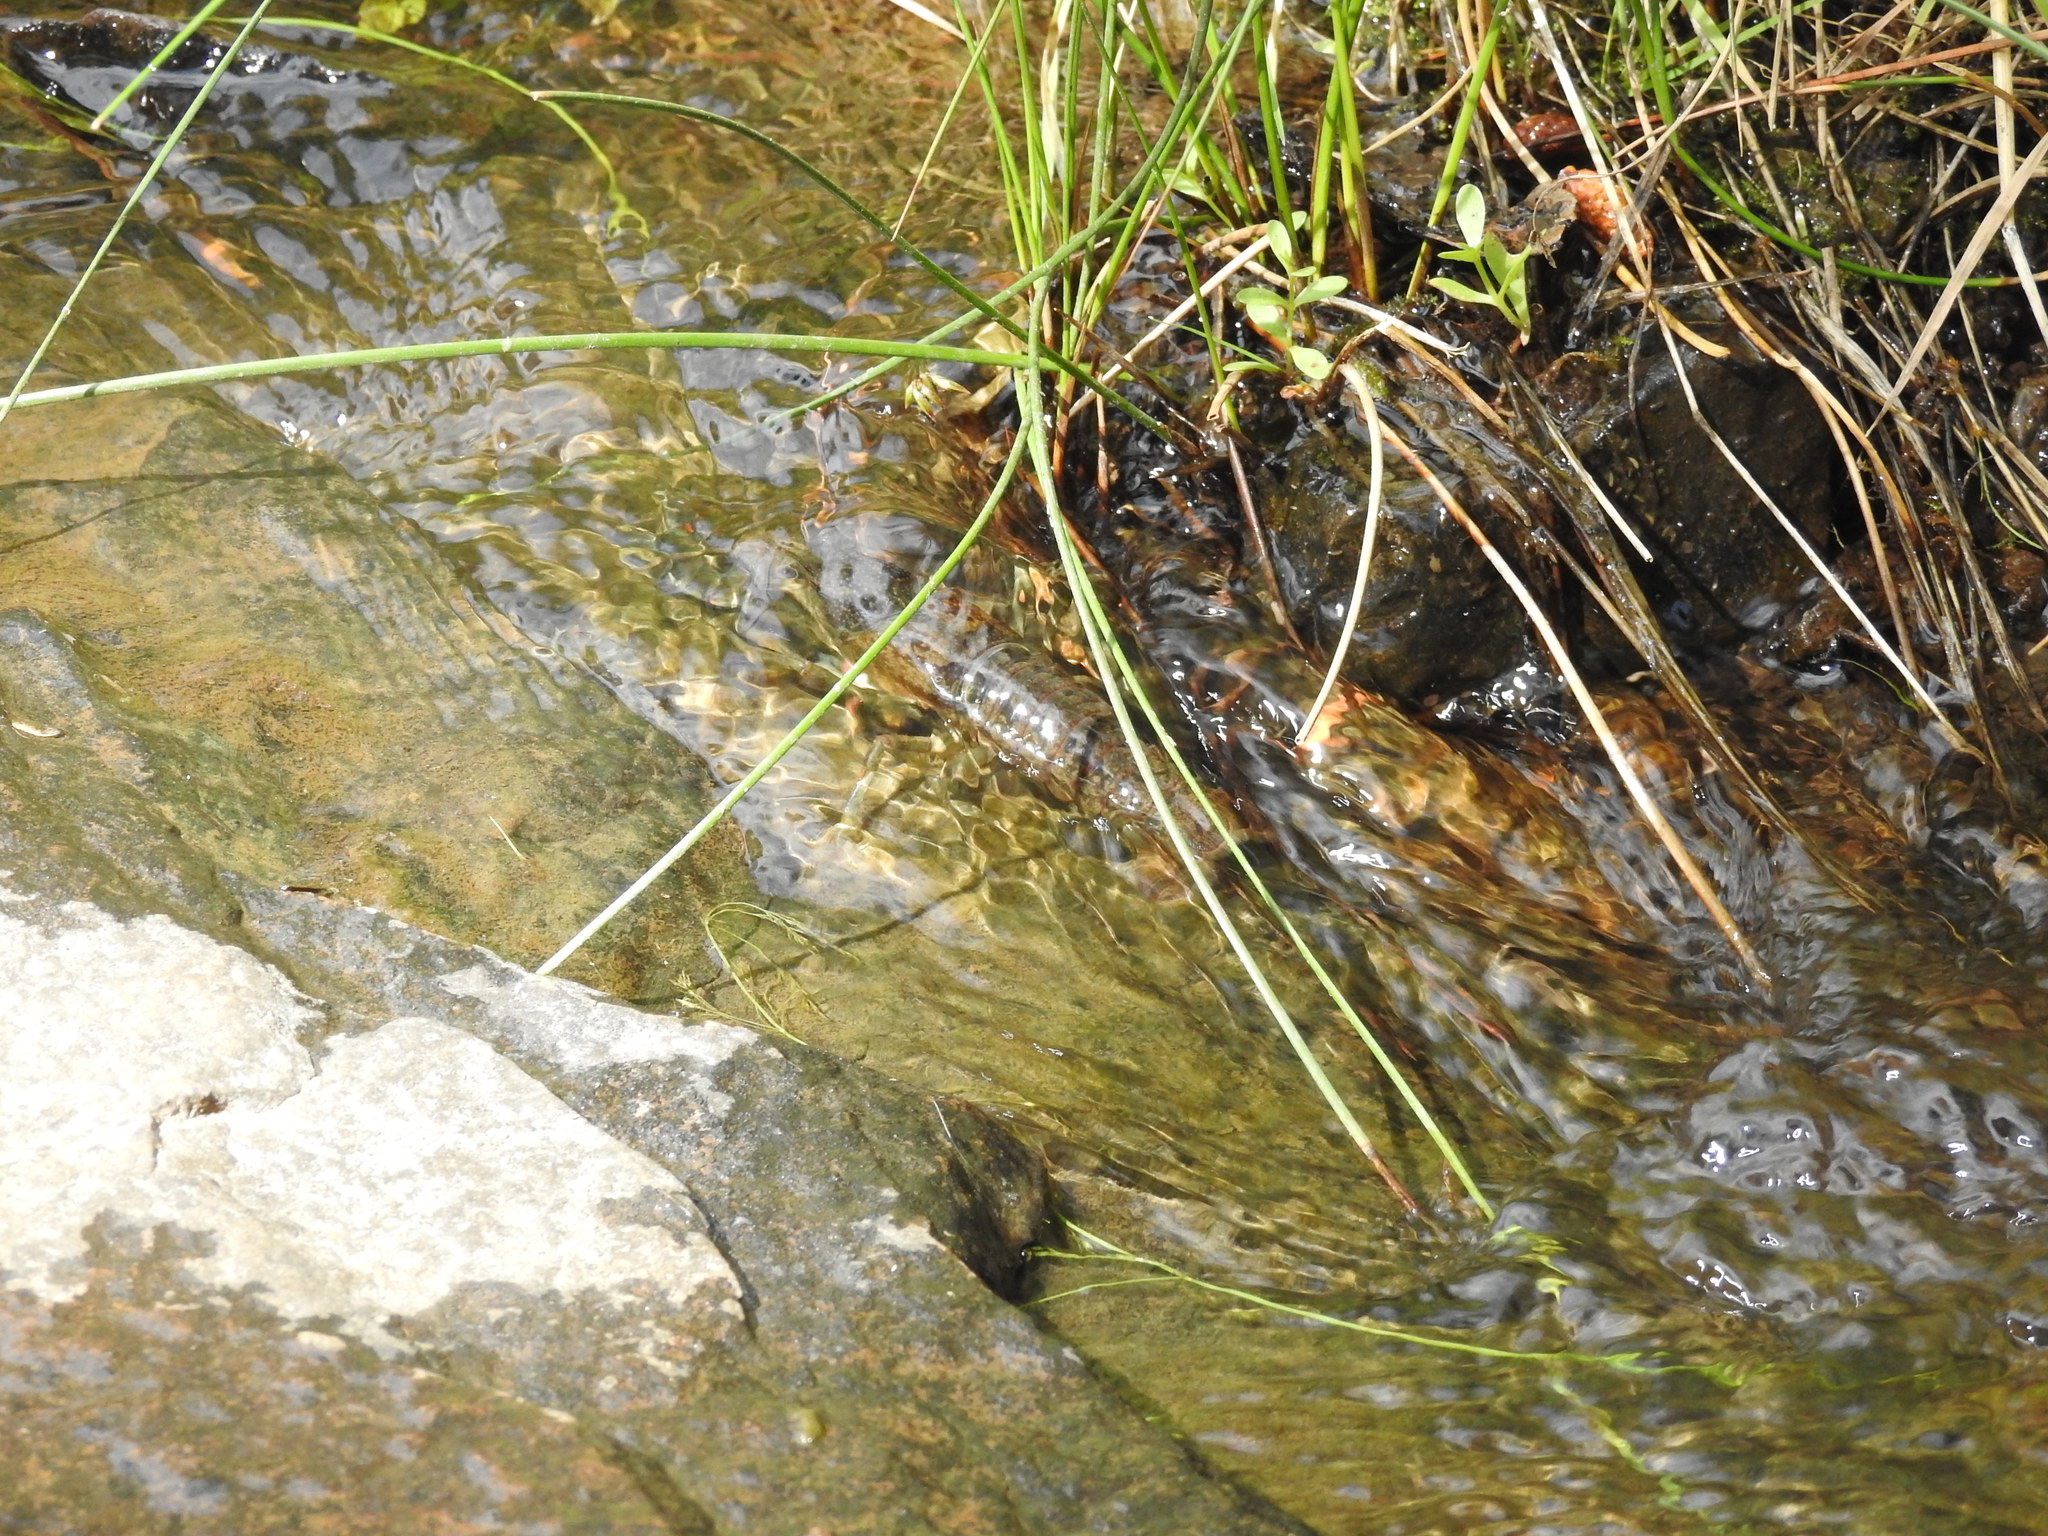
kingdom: Animalia
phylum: Arthropoda
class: Malacostraca
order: Decapoda
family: Cambaridae
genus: Faxonius
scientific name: Faxonius virilis
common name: Virile crayfish
